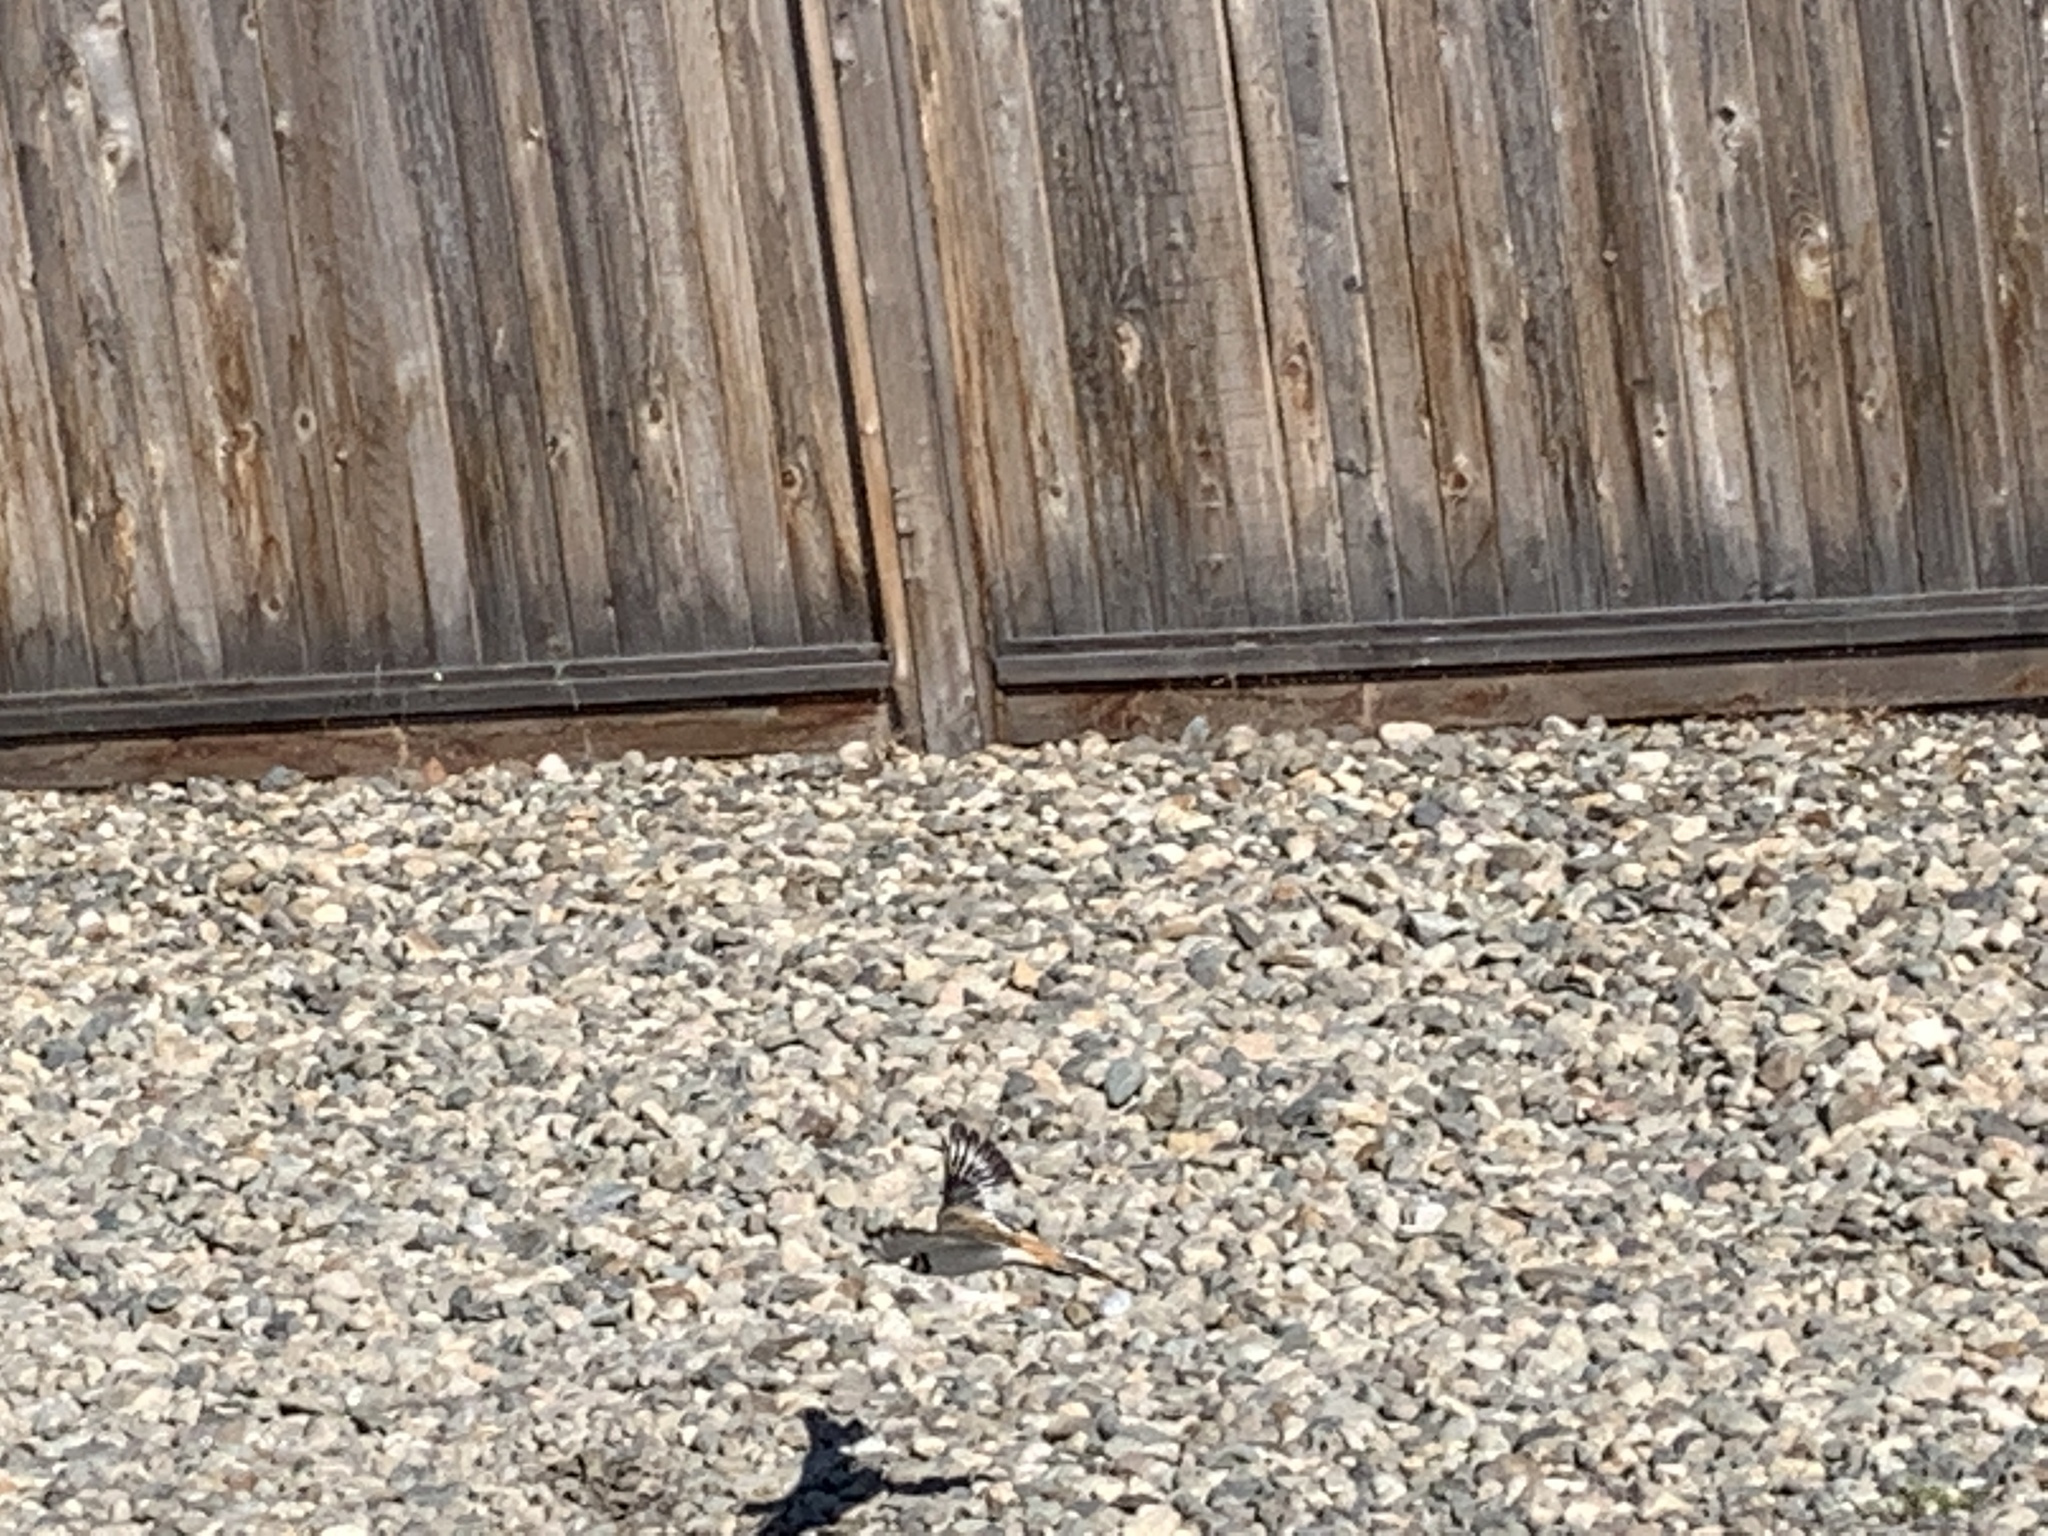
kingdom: Animalia
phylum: Chordata
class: Aves
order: Charadriiformes
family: Charadriidae
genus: Charadrius
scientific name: Charadrius vociferus
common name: Killdeer
